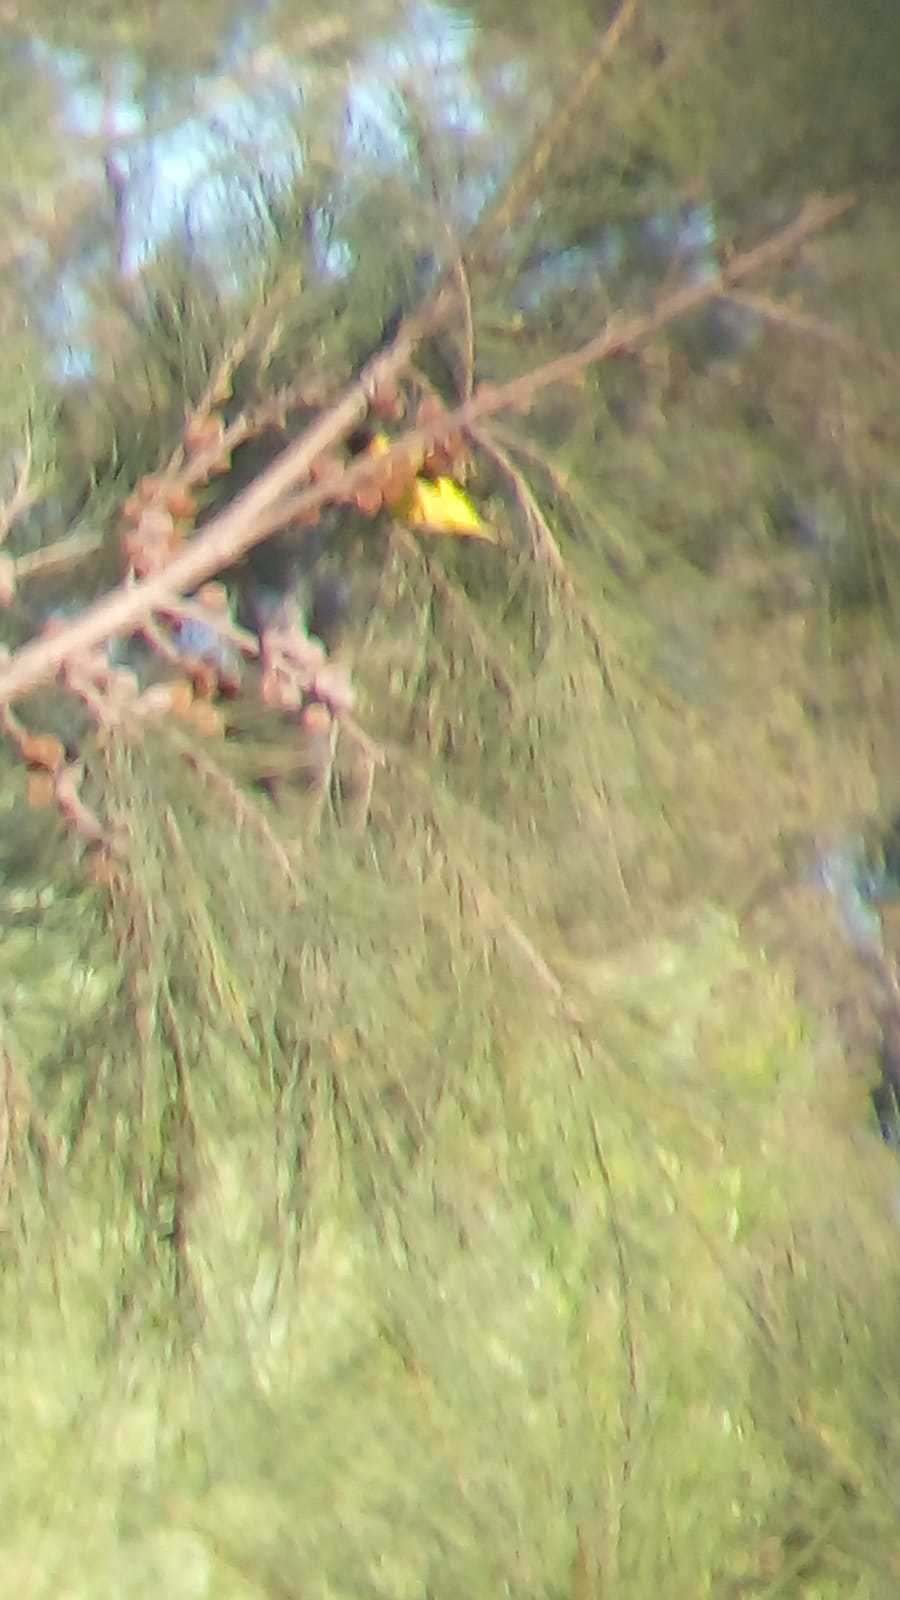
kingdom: Animalia
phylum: Chordata
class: Aves
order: Passeriformes
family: Fringillidae
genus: Spinus
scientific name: Spinus magellanicus
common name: Hooded siskin
